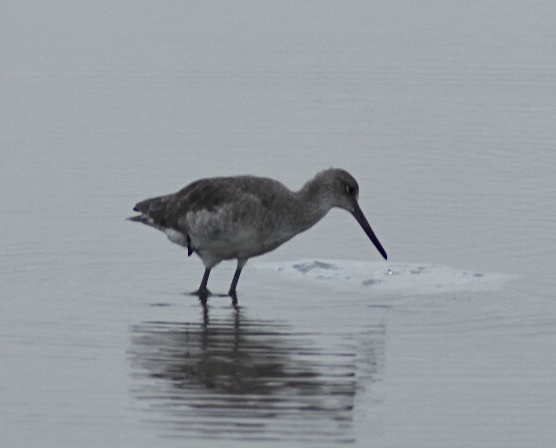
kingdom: Animalia
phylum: Chordata
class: Aves
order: Charadriiformes
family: Scolopacidae
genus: Tringa
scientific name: Tringa semipalmata
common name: Willet
